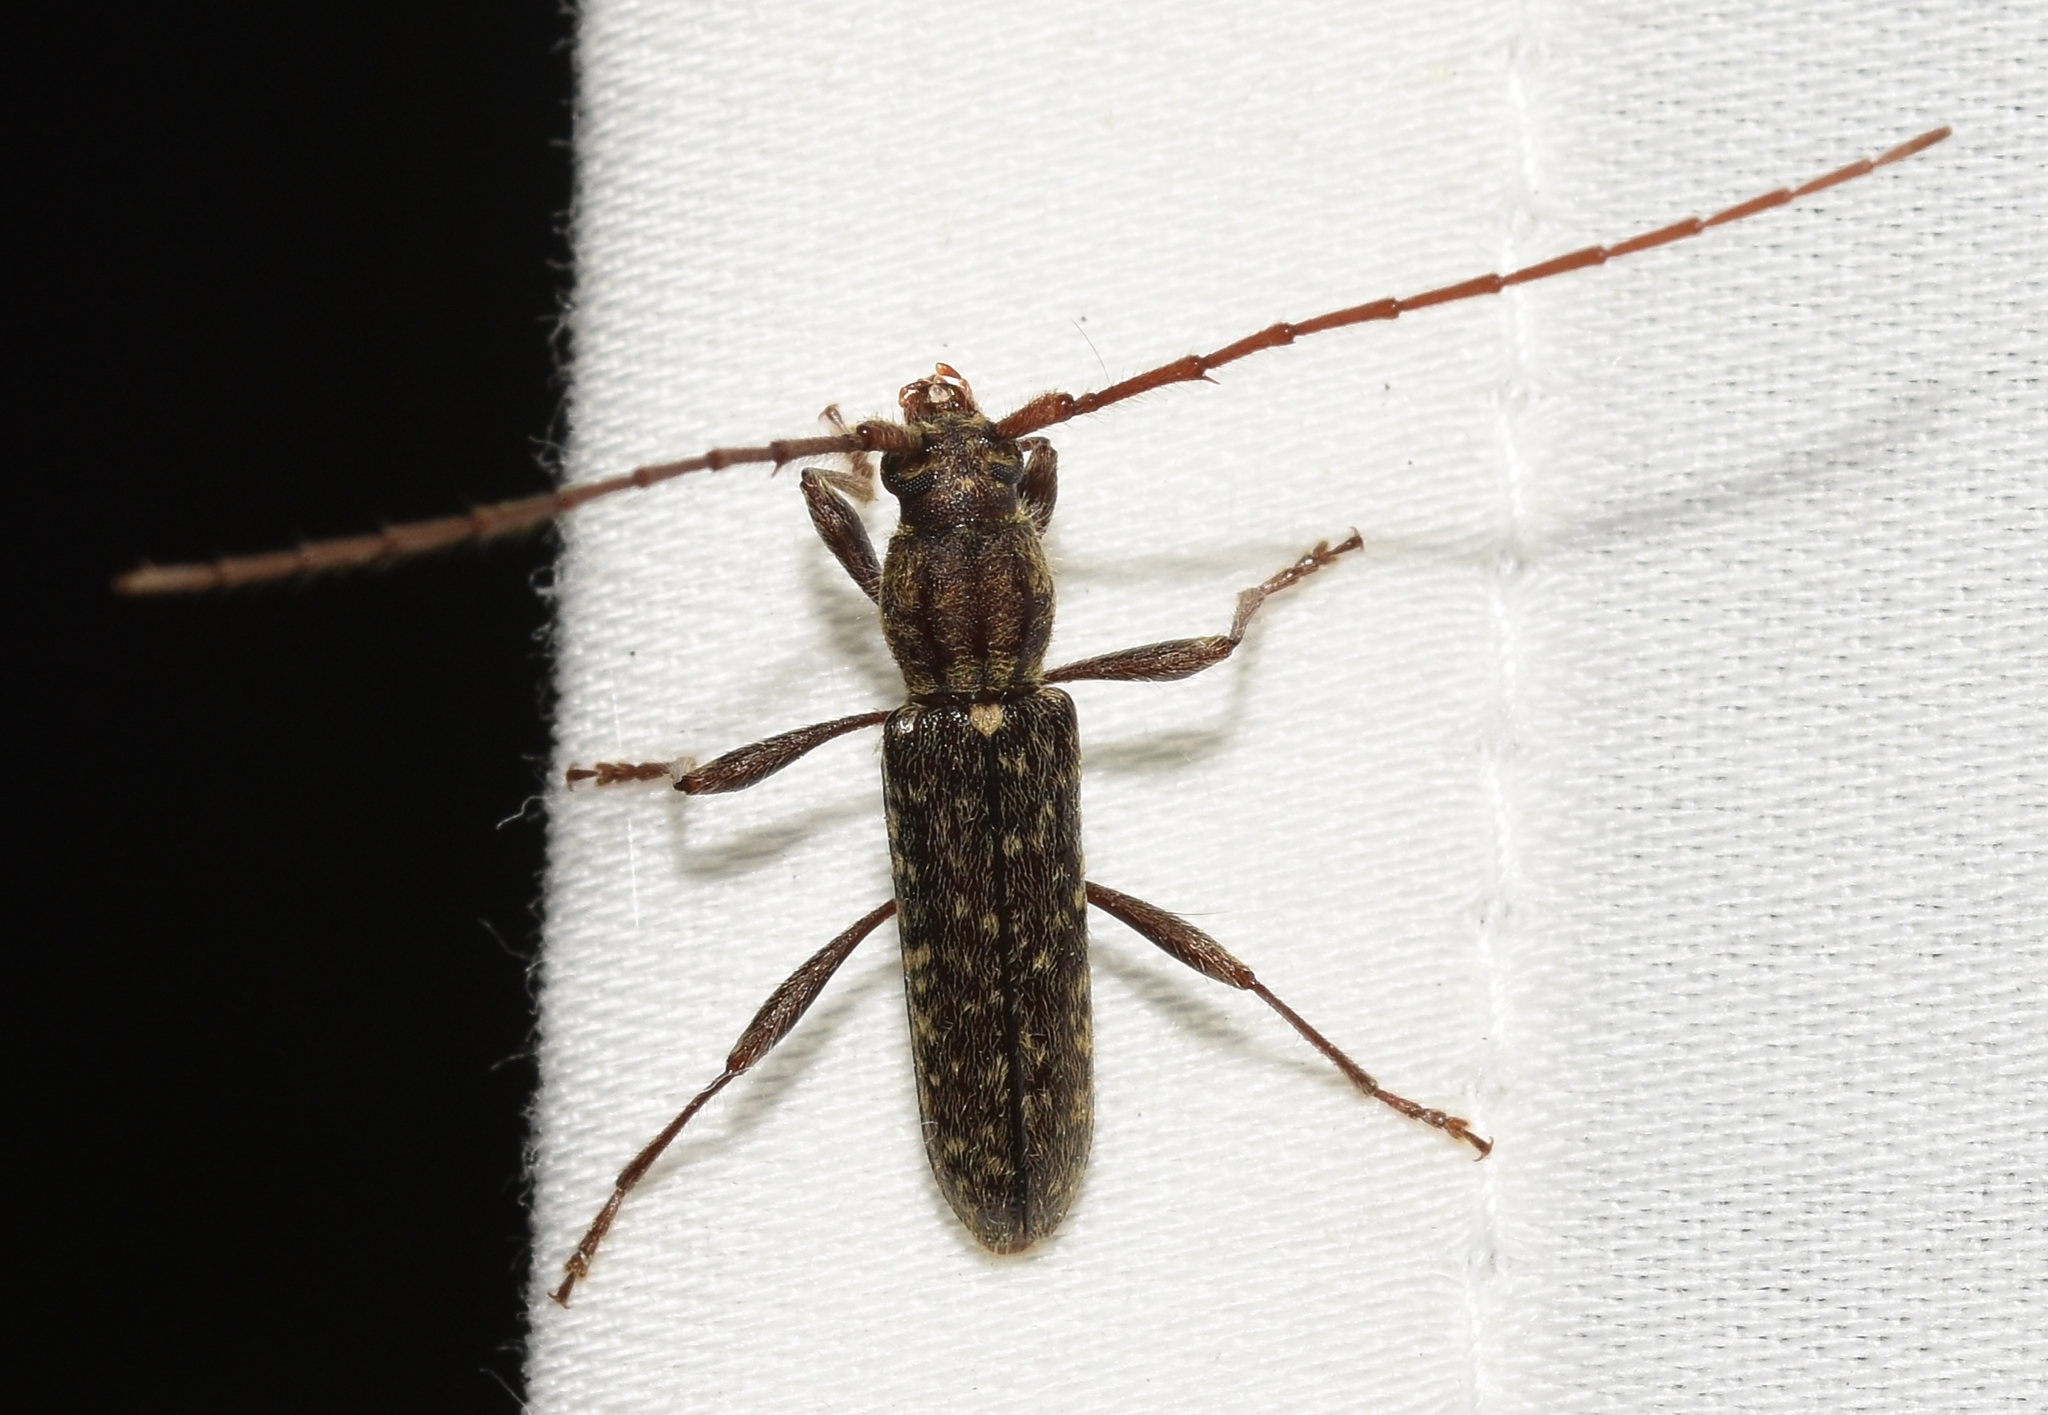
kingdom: Animalia
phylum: Arthropoda
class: Insecta
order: Coleoptera
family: Cerambycidae
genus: Anelaphus
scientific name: Anelaphus pumilus
